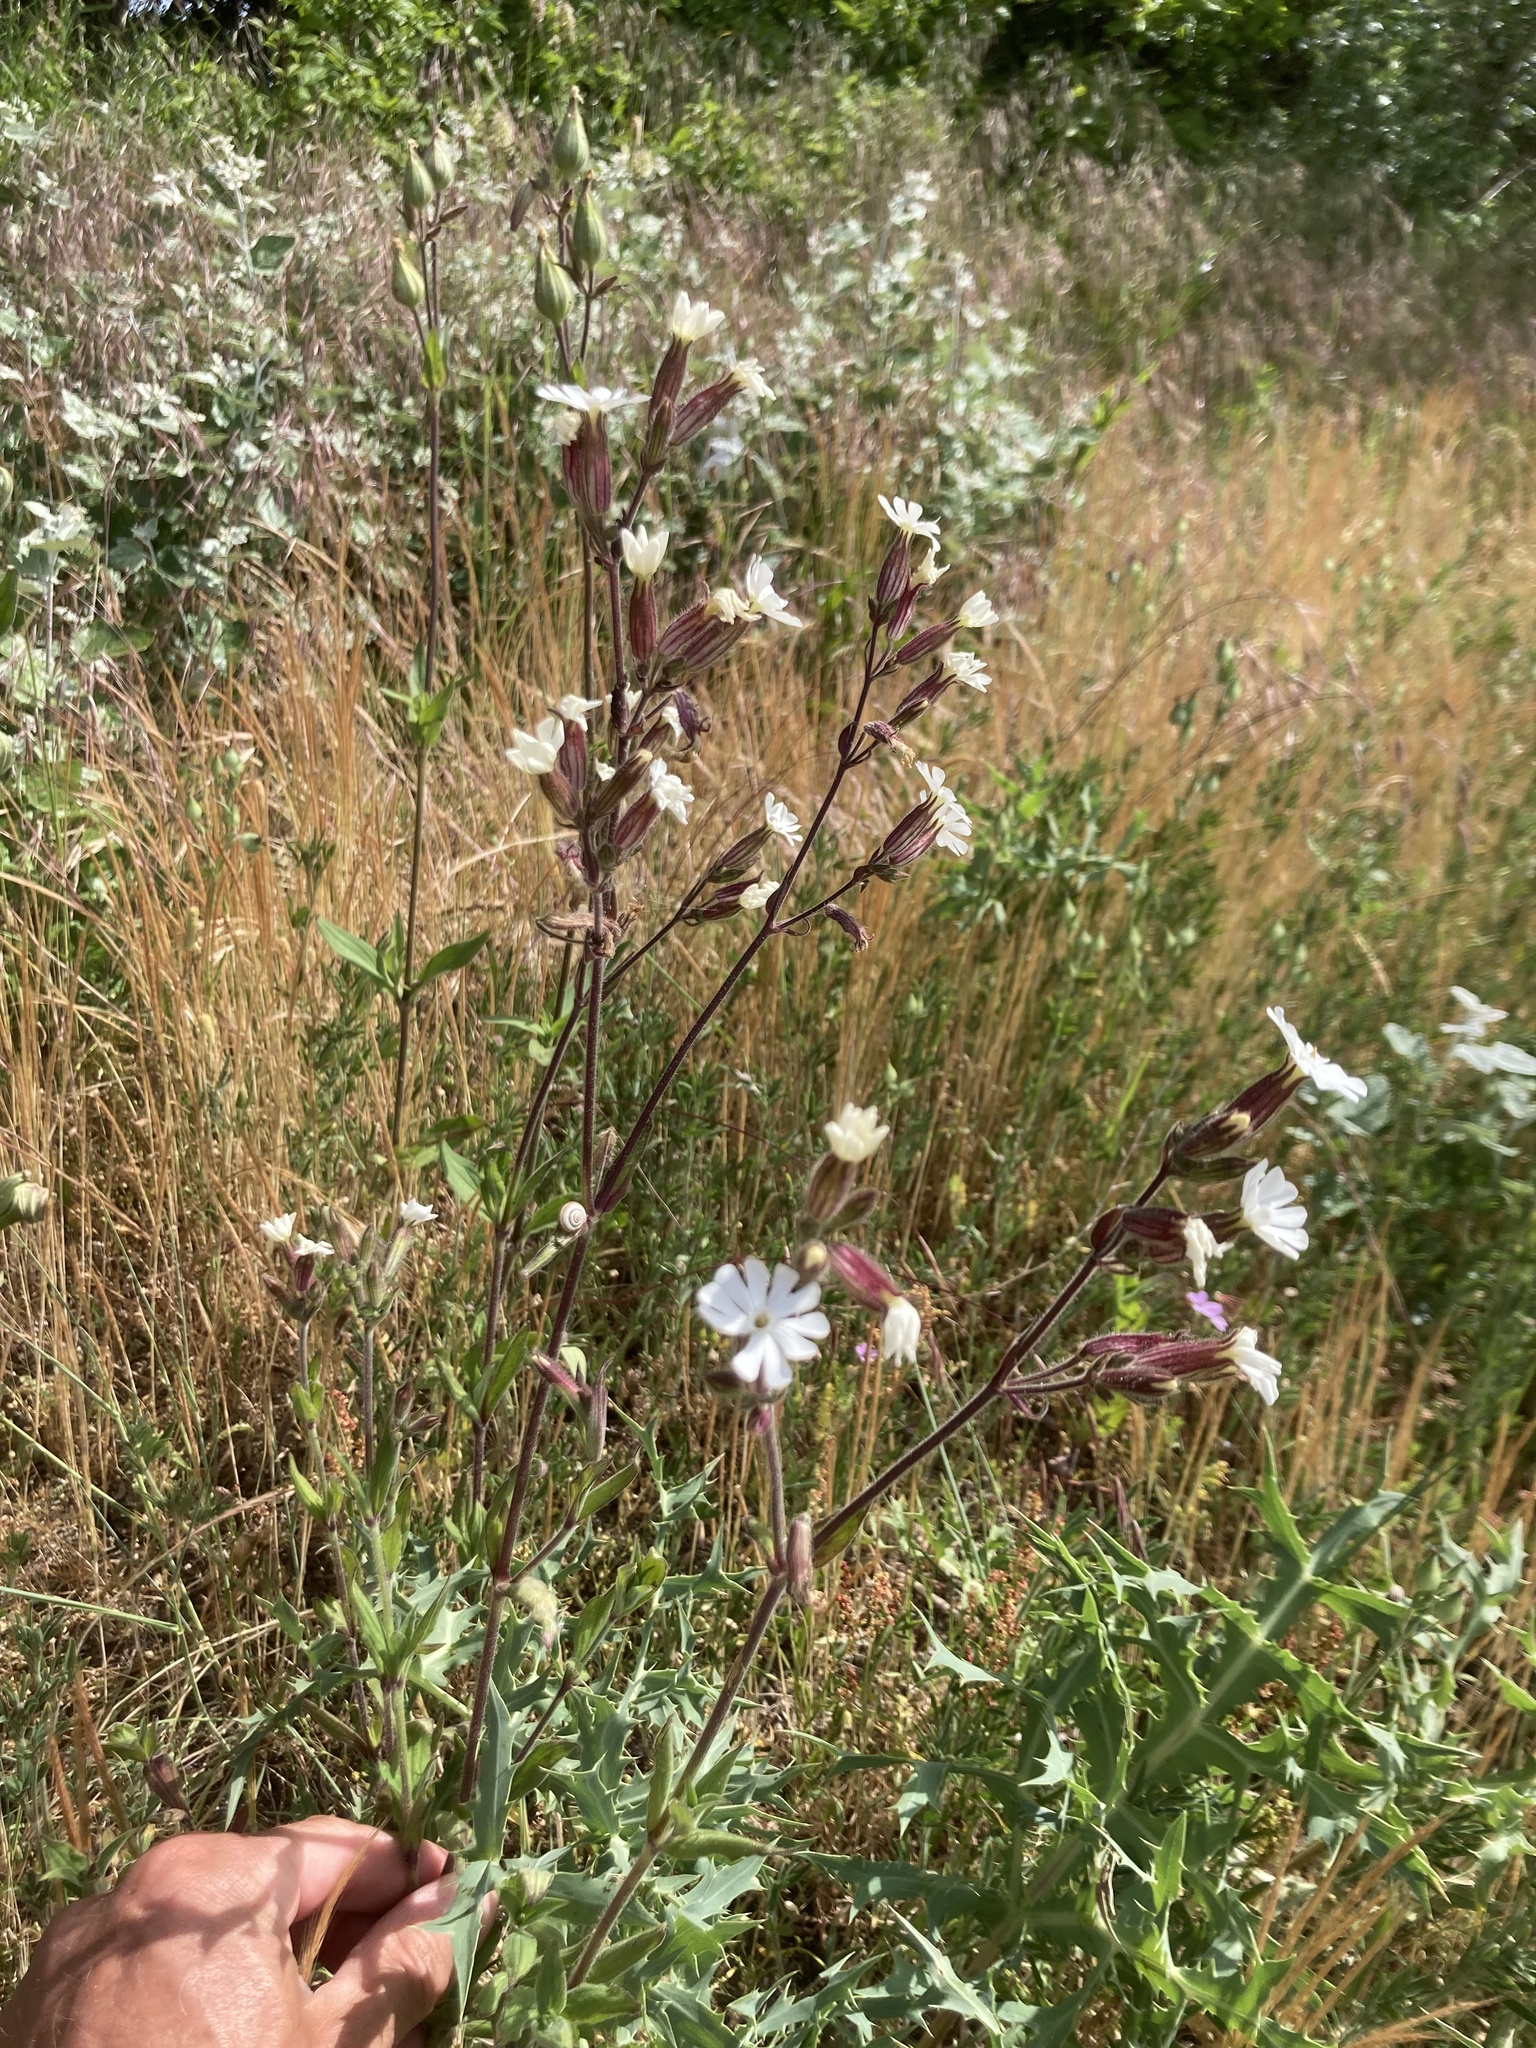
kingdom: Plantae
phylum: Tracheophyta
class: Magnoliopsida
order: Caryophyllales
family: Caryophyllaceae
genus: Silene
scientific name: Silene latifolia
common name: White campion
